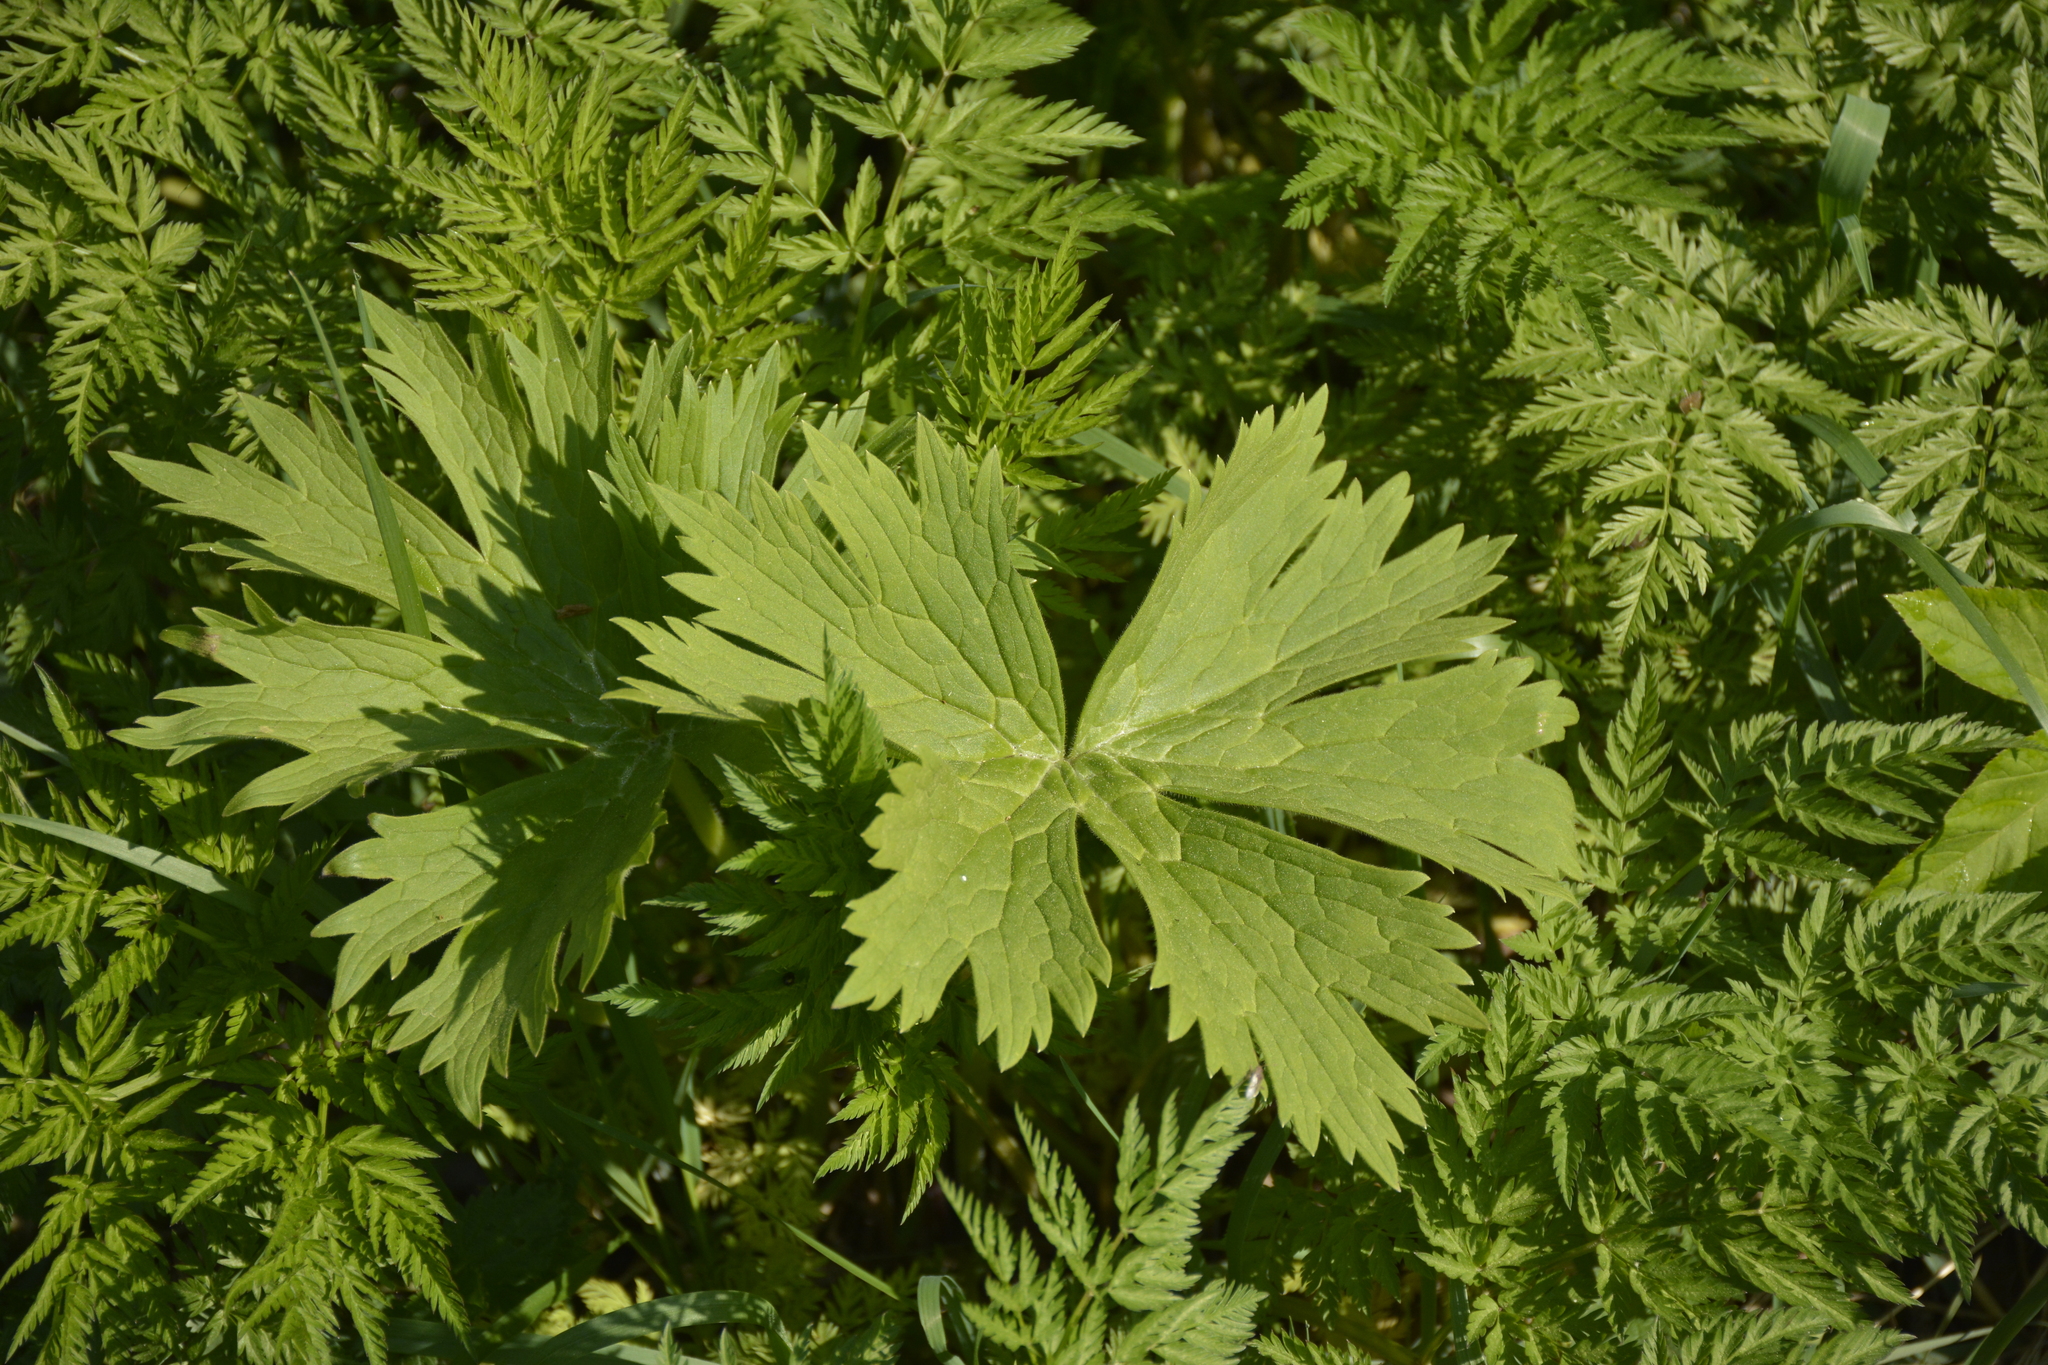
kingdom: Plantae
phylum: Tracheophyta
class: Magnoliopsida
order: Ranunculales
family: Ranunculaceae
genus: Aconitum
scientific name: Aconitum septentrionale
